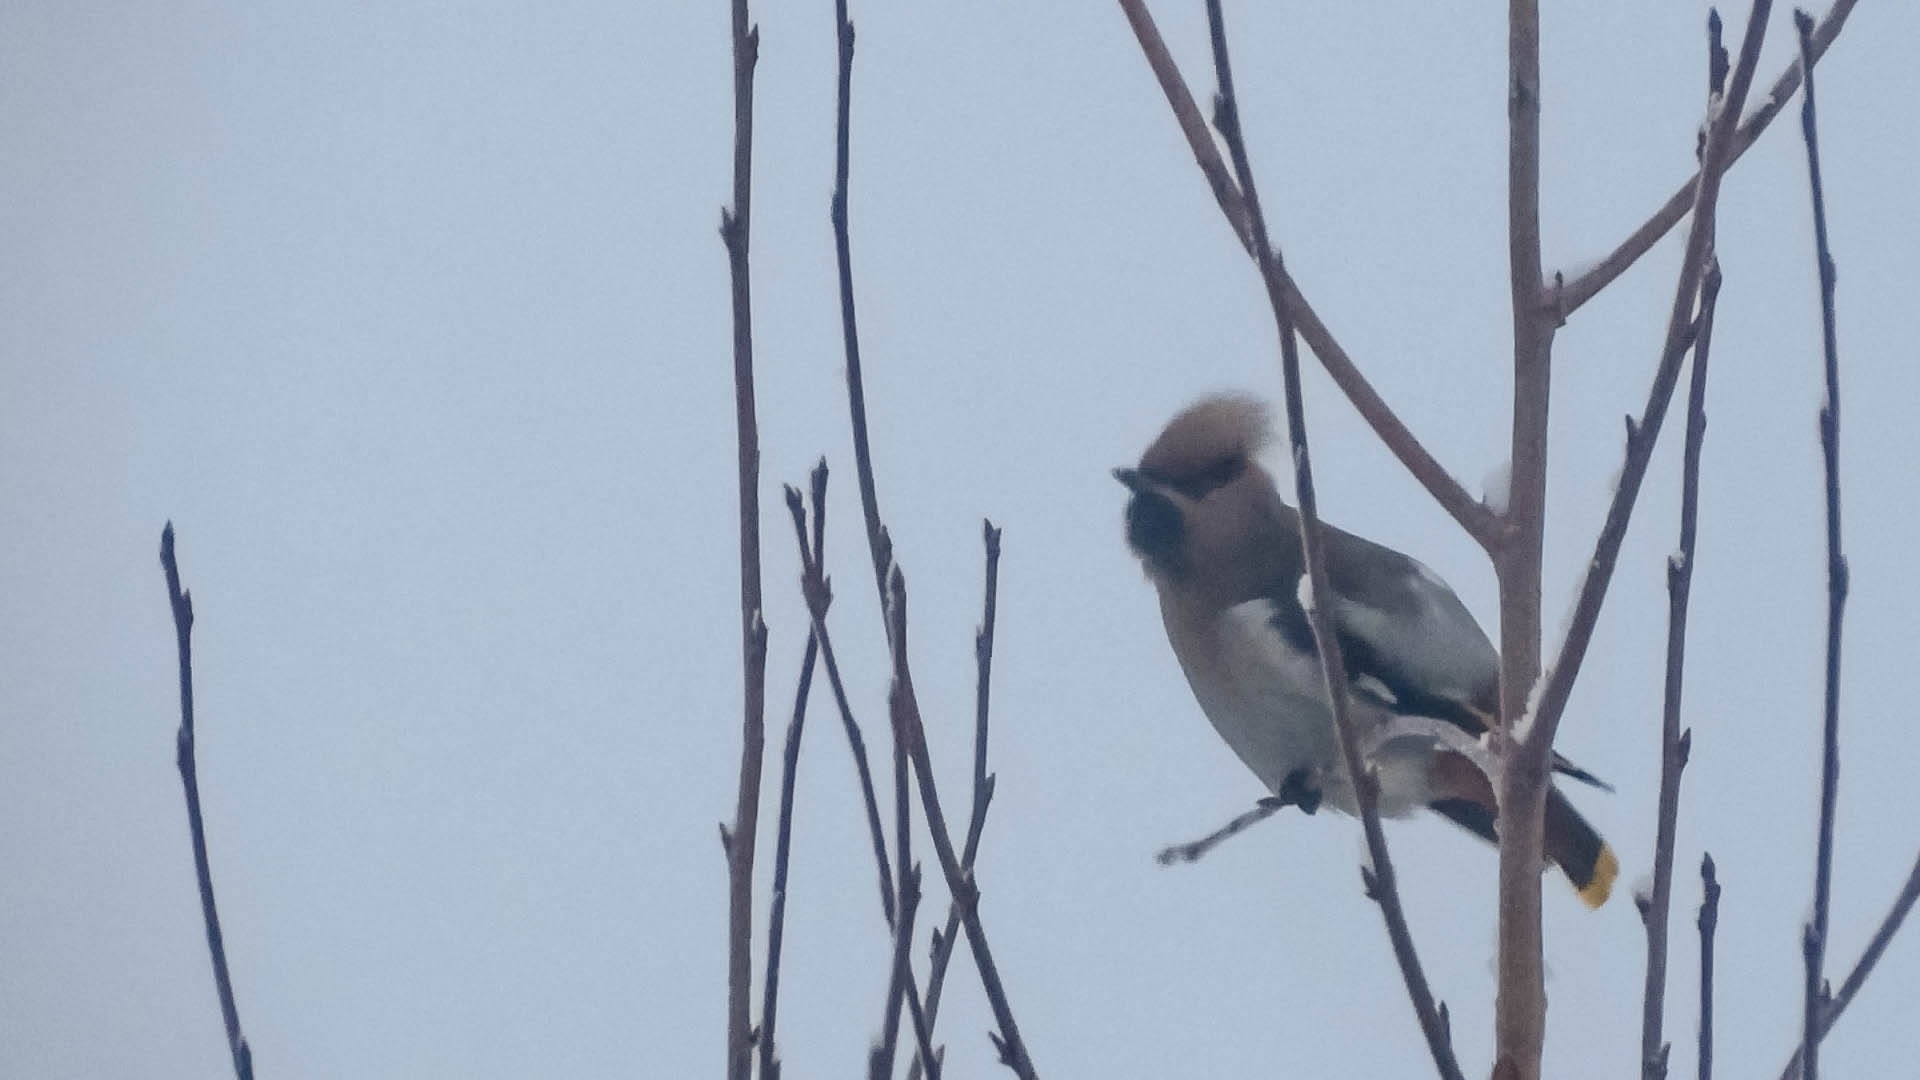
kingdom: Animalia
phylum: Chordata
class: Aves
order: Passeriformes
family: Bombycillidae
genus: Bombycilla
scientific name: Bombycilla garrulus
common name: Bohemian waxwing
